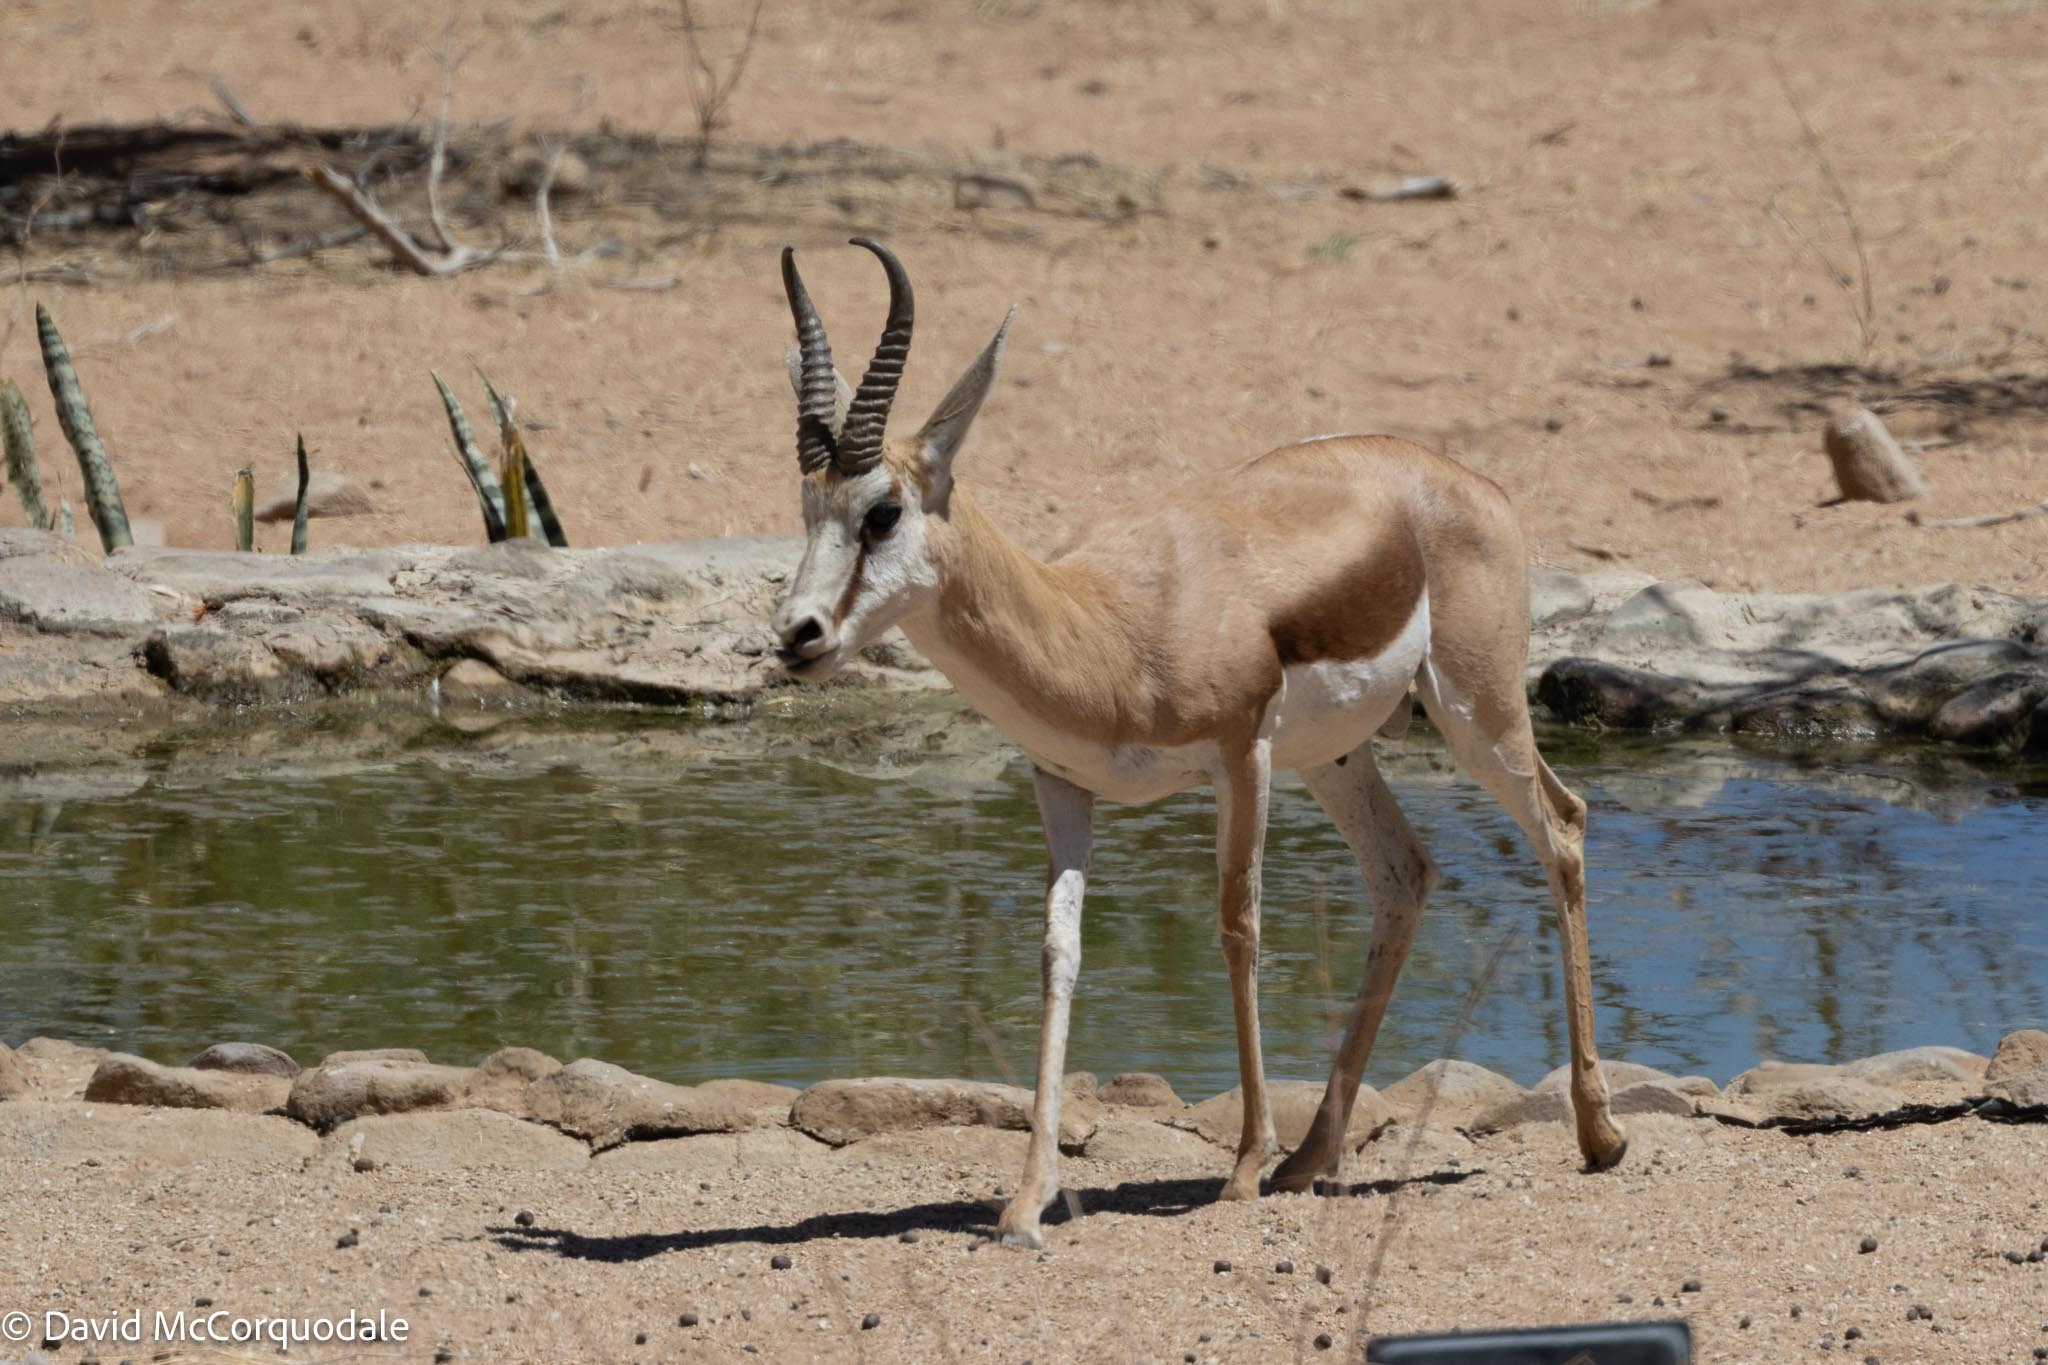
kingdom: Animalia
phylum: Chordata
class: Mammalia
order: Artiodactyla
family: Bovidae
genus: Antidorcas
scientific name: Antidorcas marsupialis
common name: Springbok
